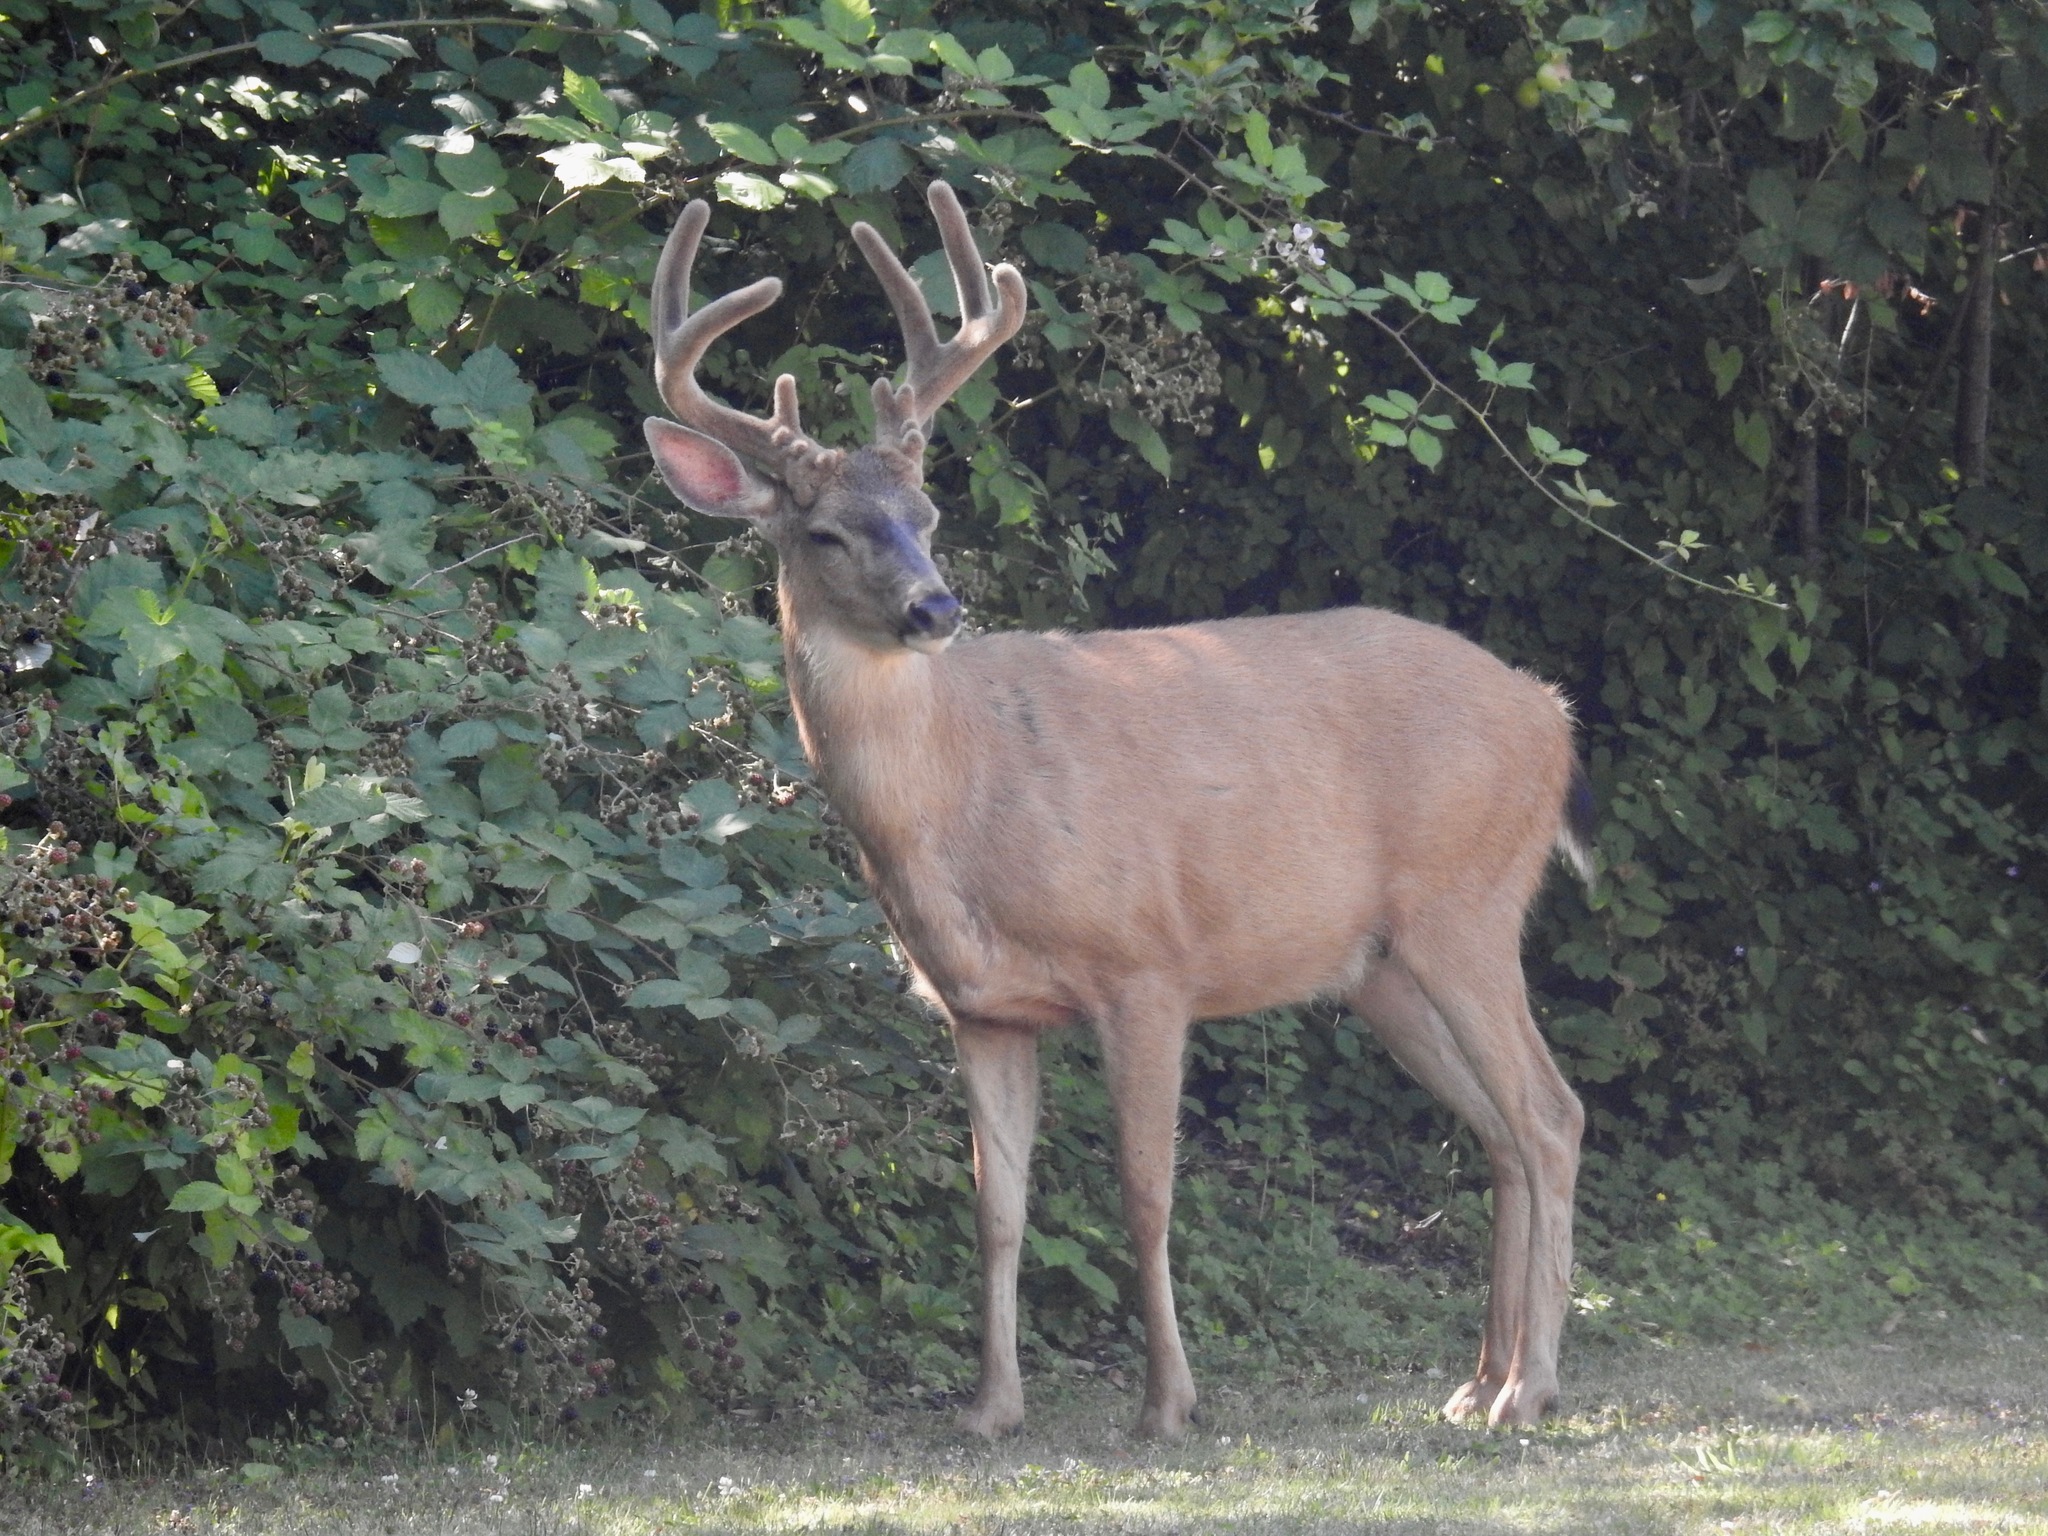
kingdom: Animalia
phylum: Chordata
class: Mammalia
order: Artiodactyla
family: Cervidae
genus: Odocoileus
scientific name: Odocoileus hemionus
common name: Mule deer
